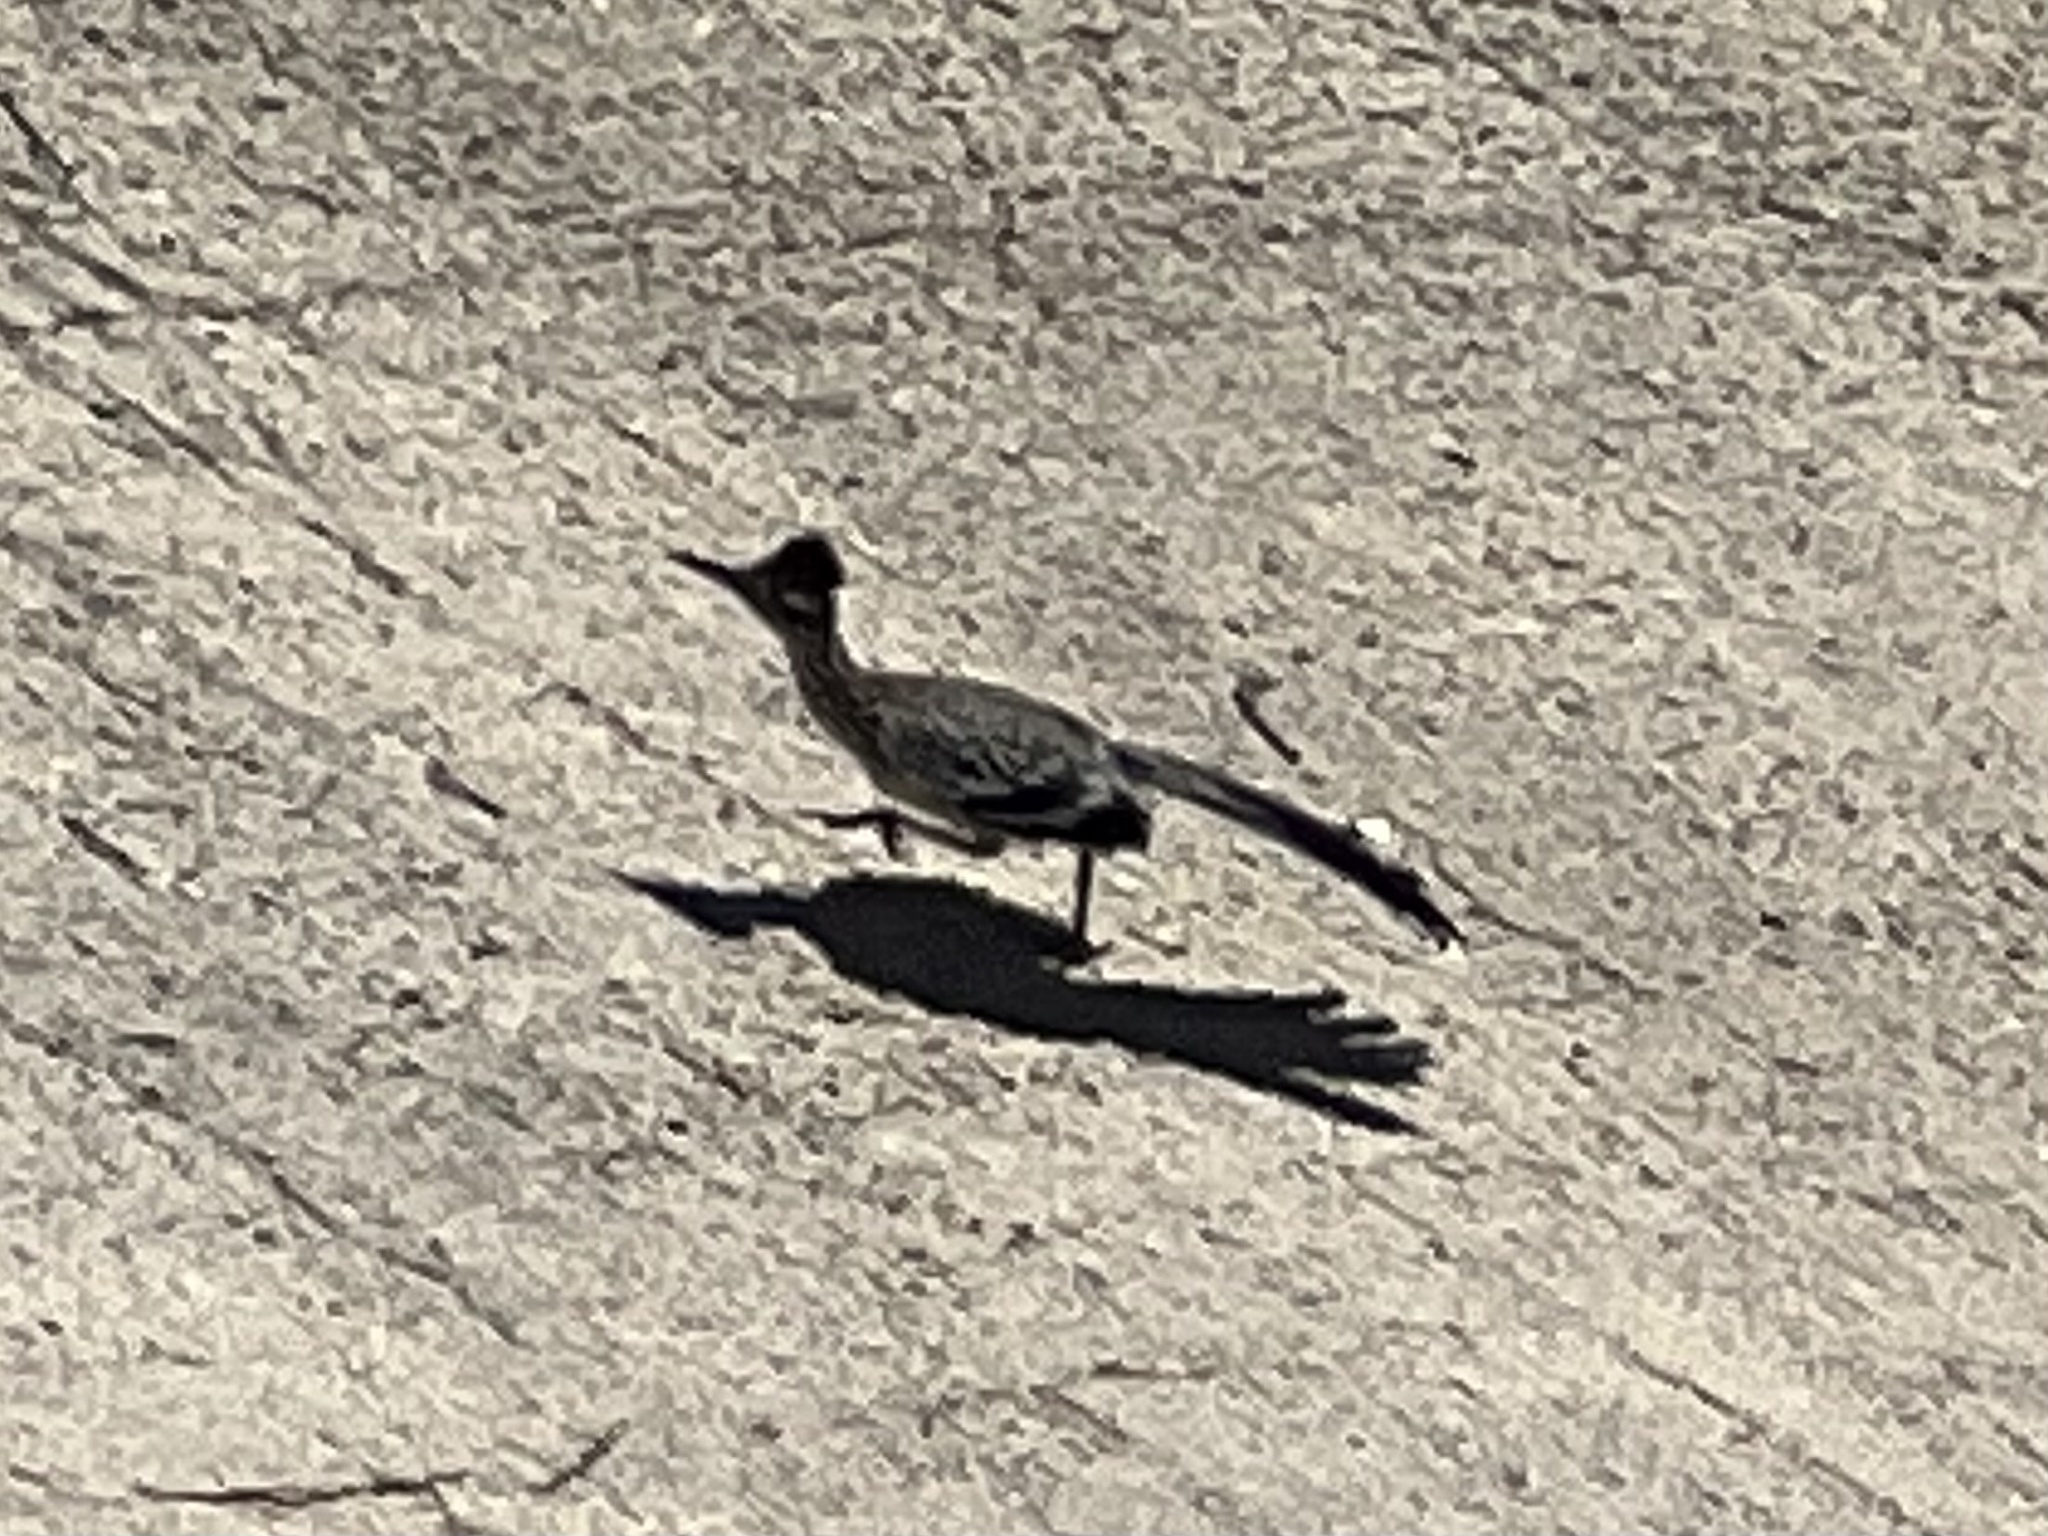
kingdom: Animalia
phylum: Chordata
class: Aves
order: Cuculiformes
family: Cuculidae
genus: Geococcyx
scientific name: Geococcyx californianus
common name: Greater roadrunner
